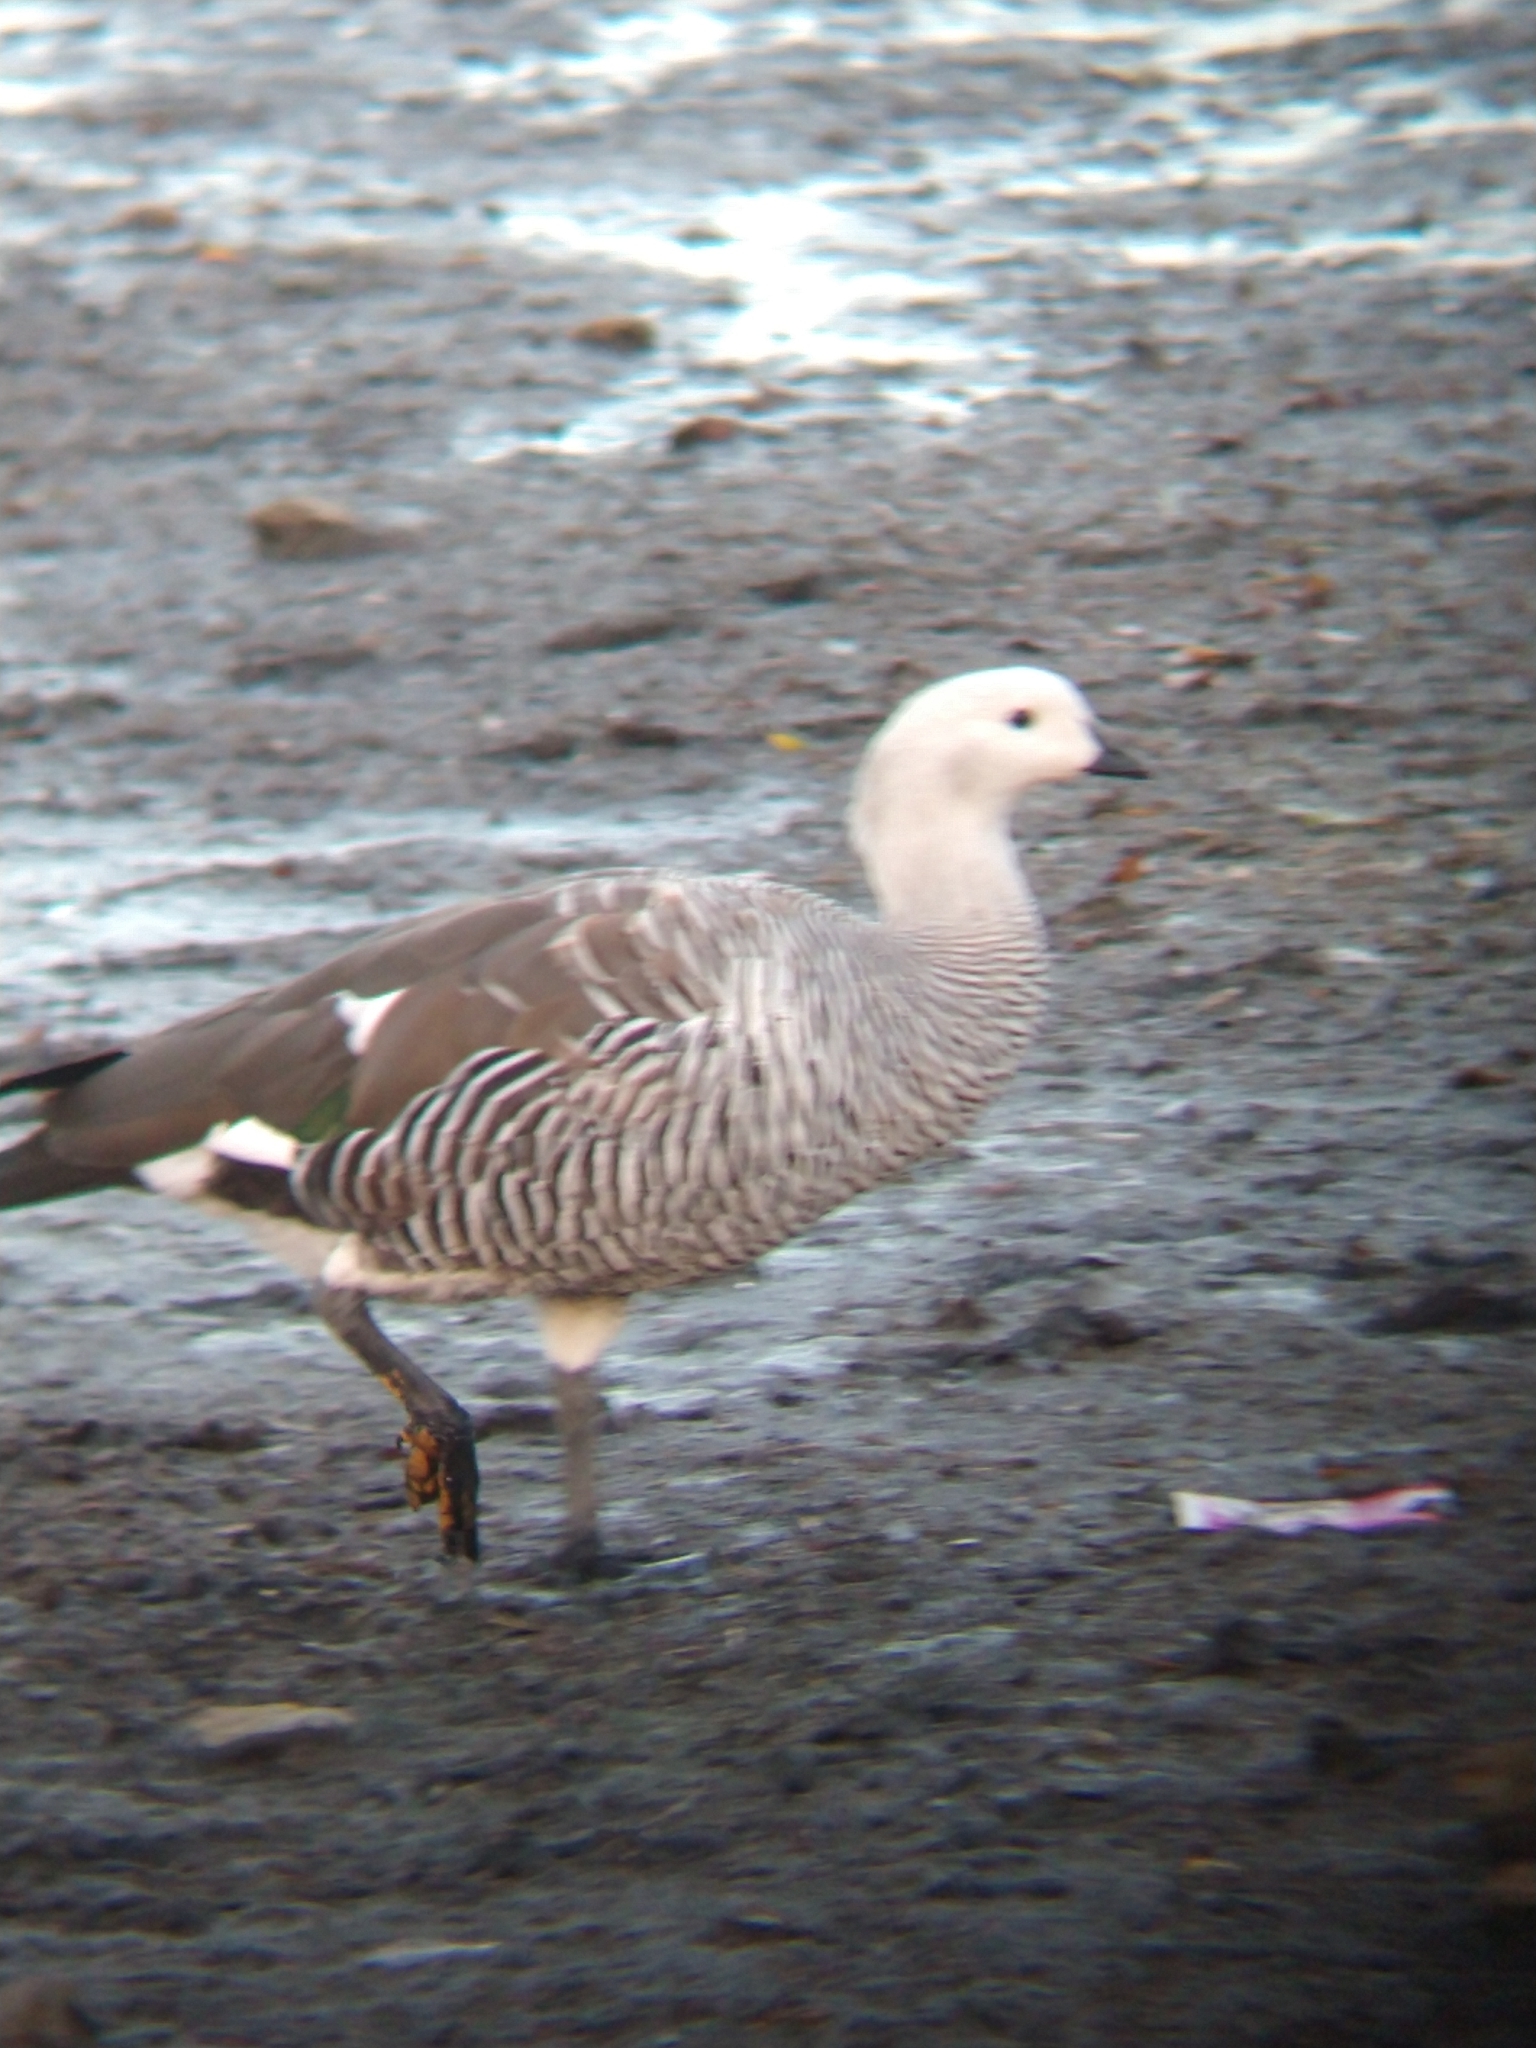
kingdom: Animalia
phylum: Chordata
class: Aves
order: Anseriformes
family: Anatidae
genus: Chloephaga
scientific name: Chloephaga picta
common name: Upland goose
